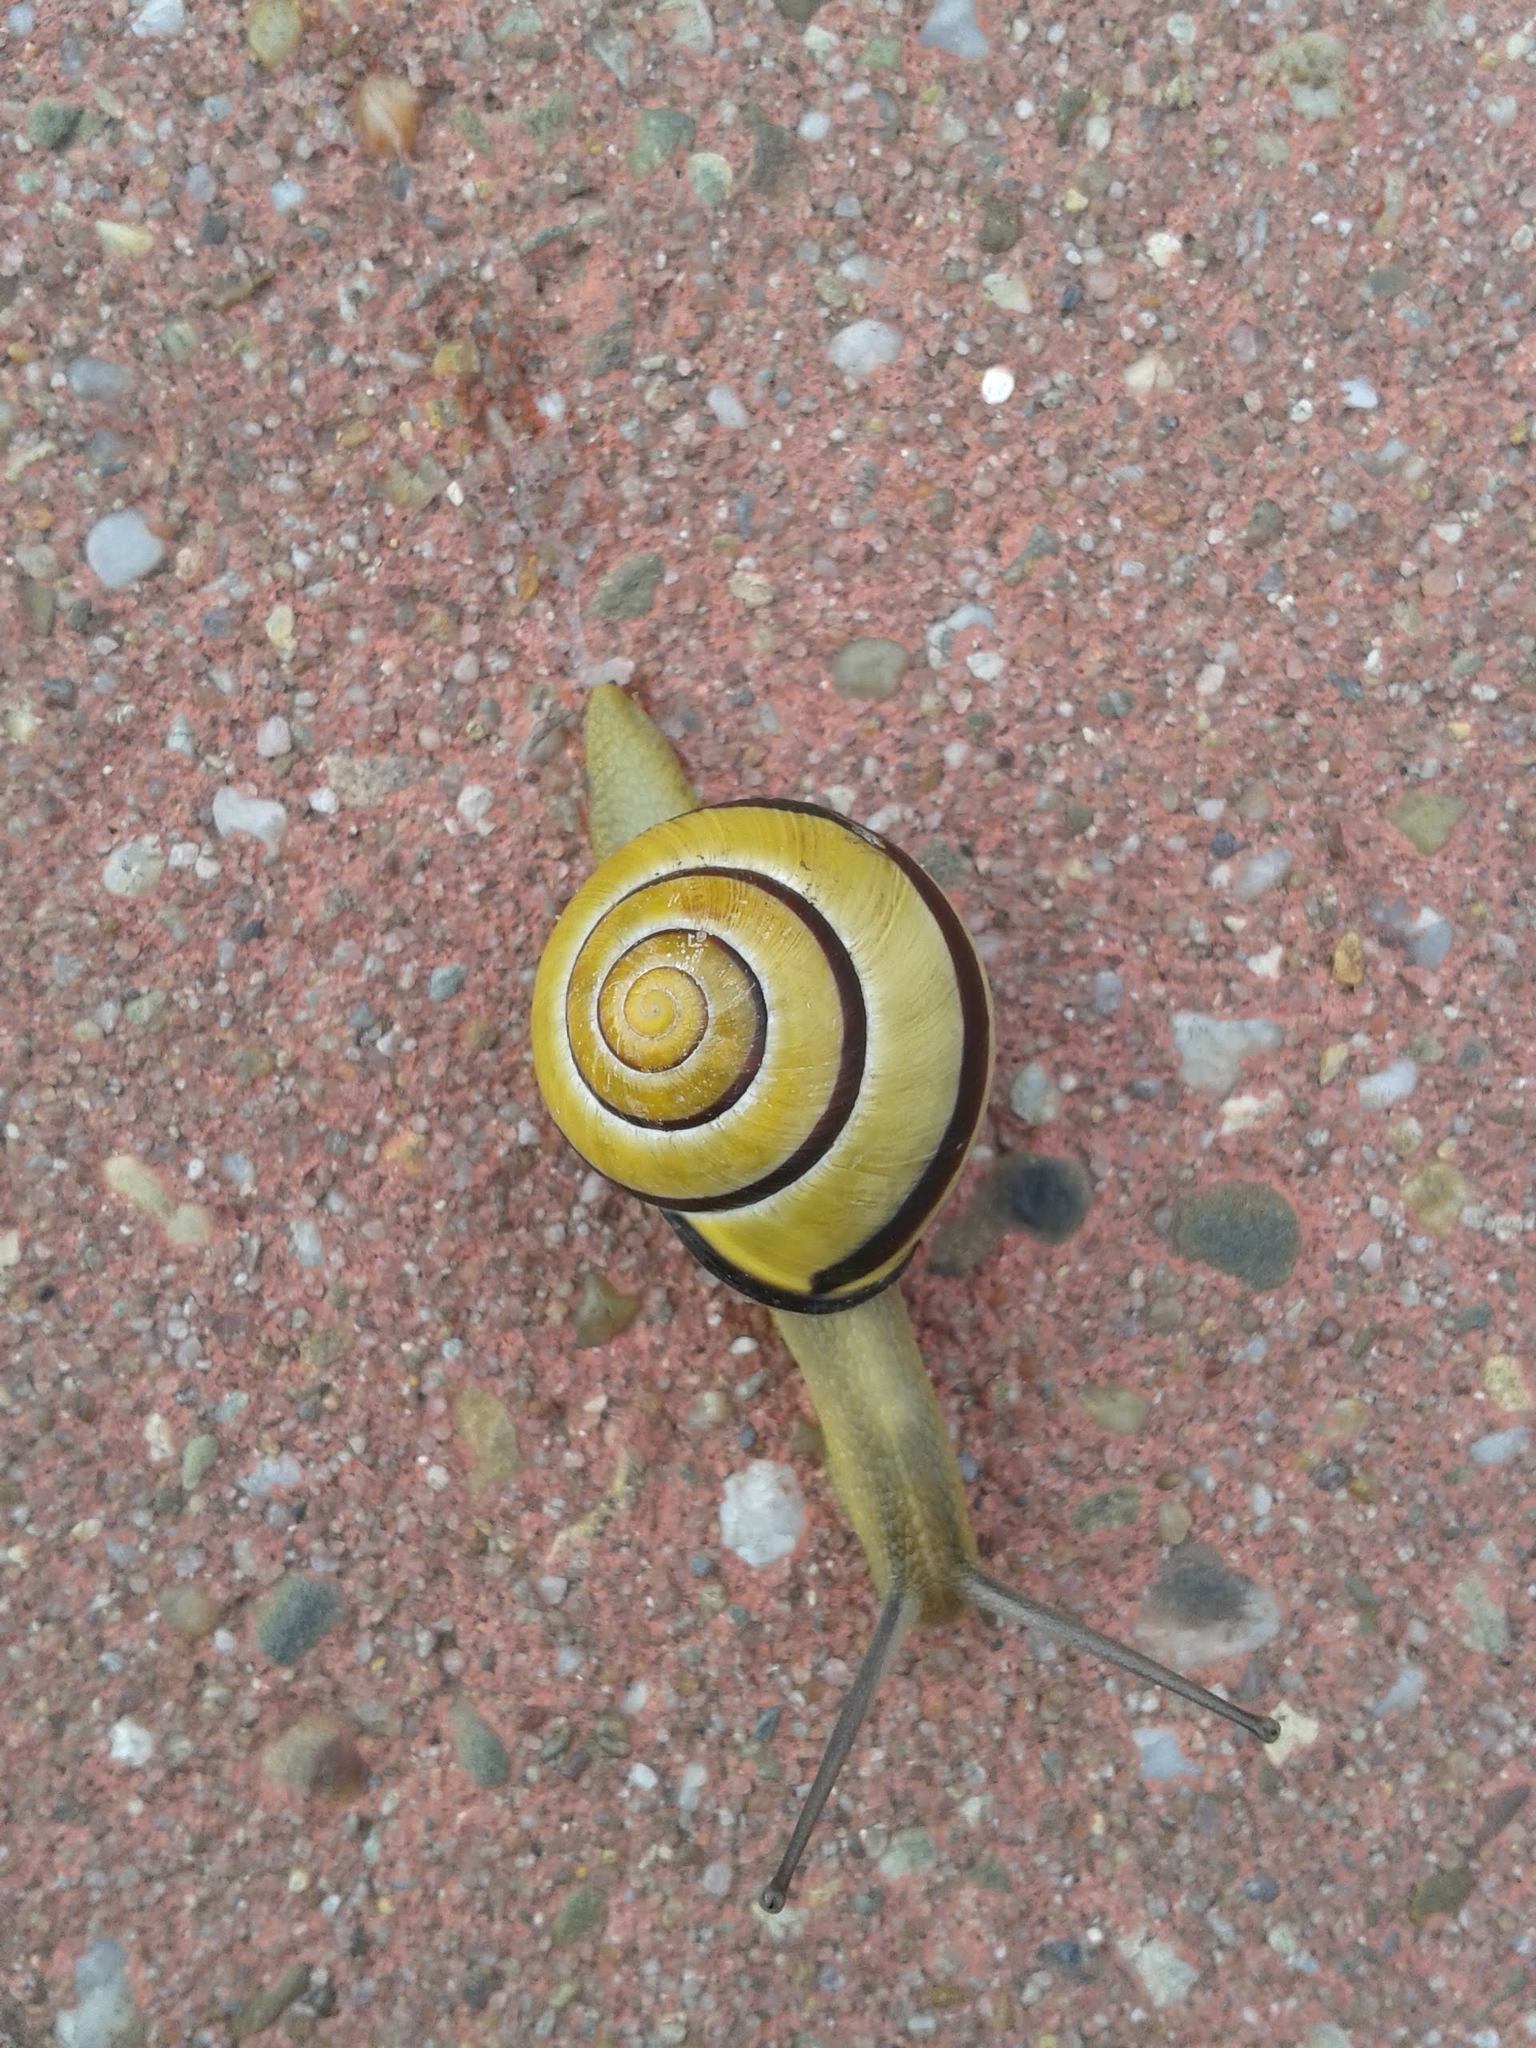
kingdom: Animalia
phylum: Mollusca
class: Gastropoda
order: Stylommatophora
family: Helicidae
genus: Cepaea
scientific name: Cepaea nemoralis
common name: Grovesnail
